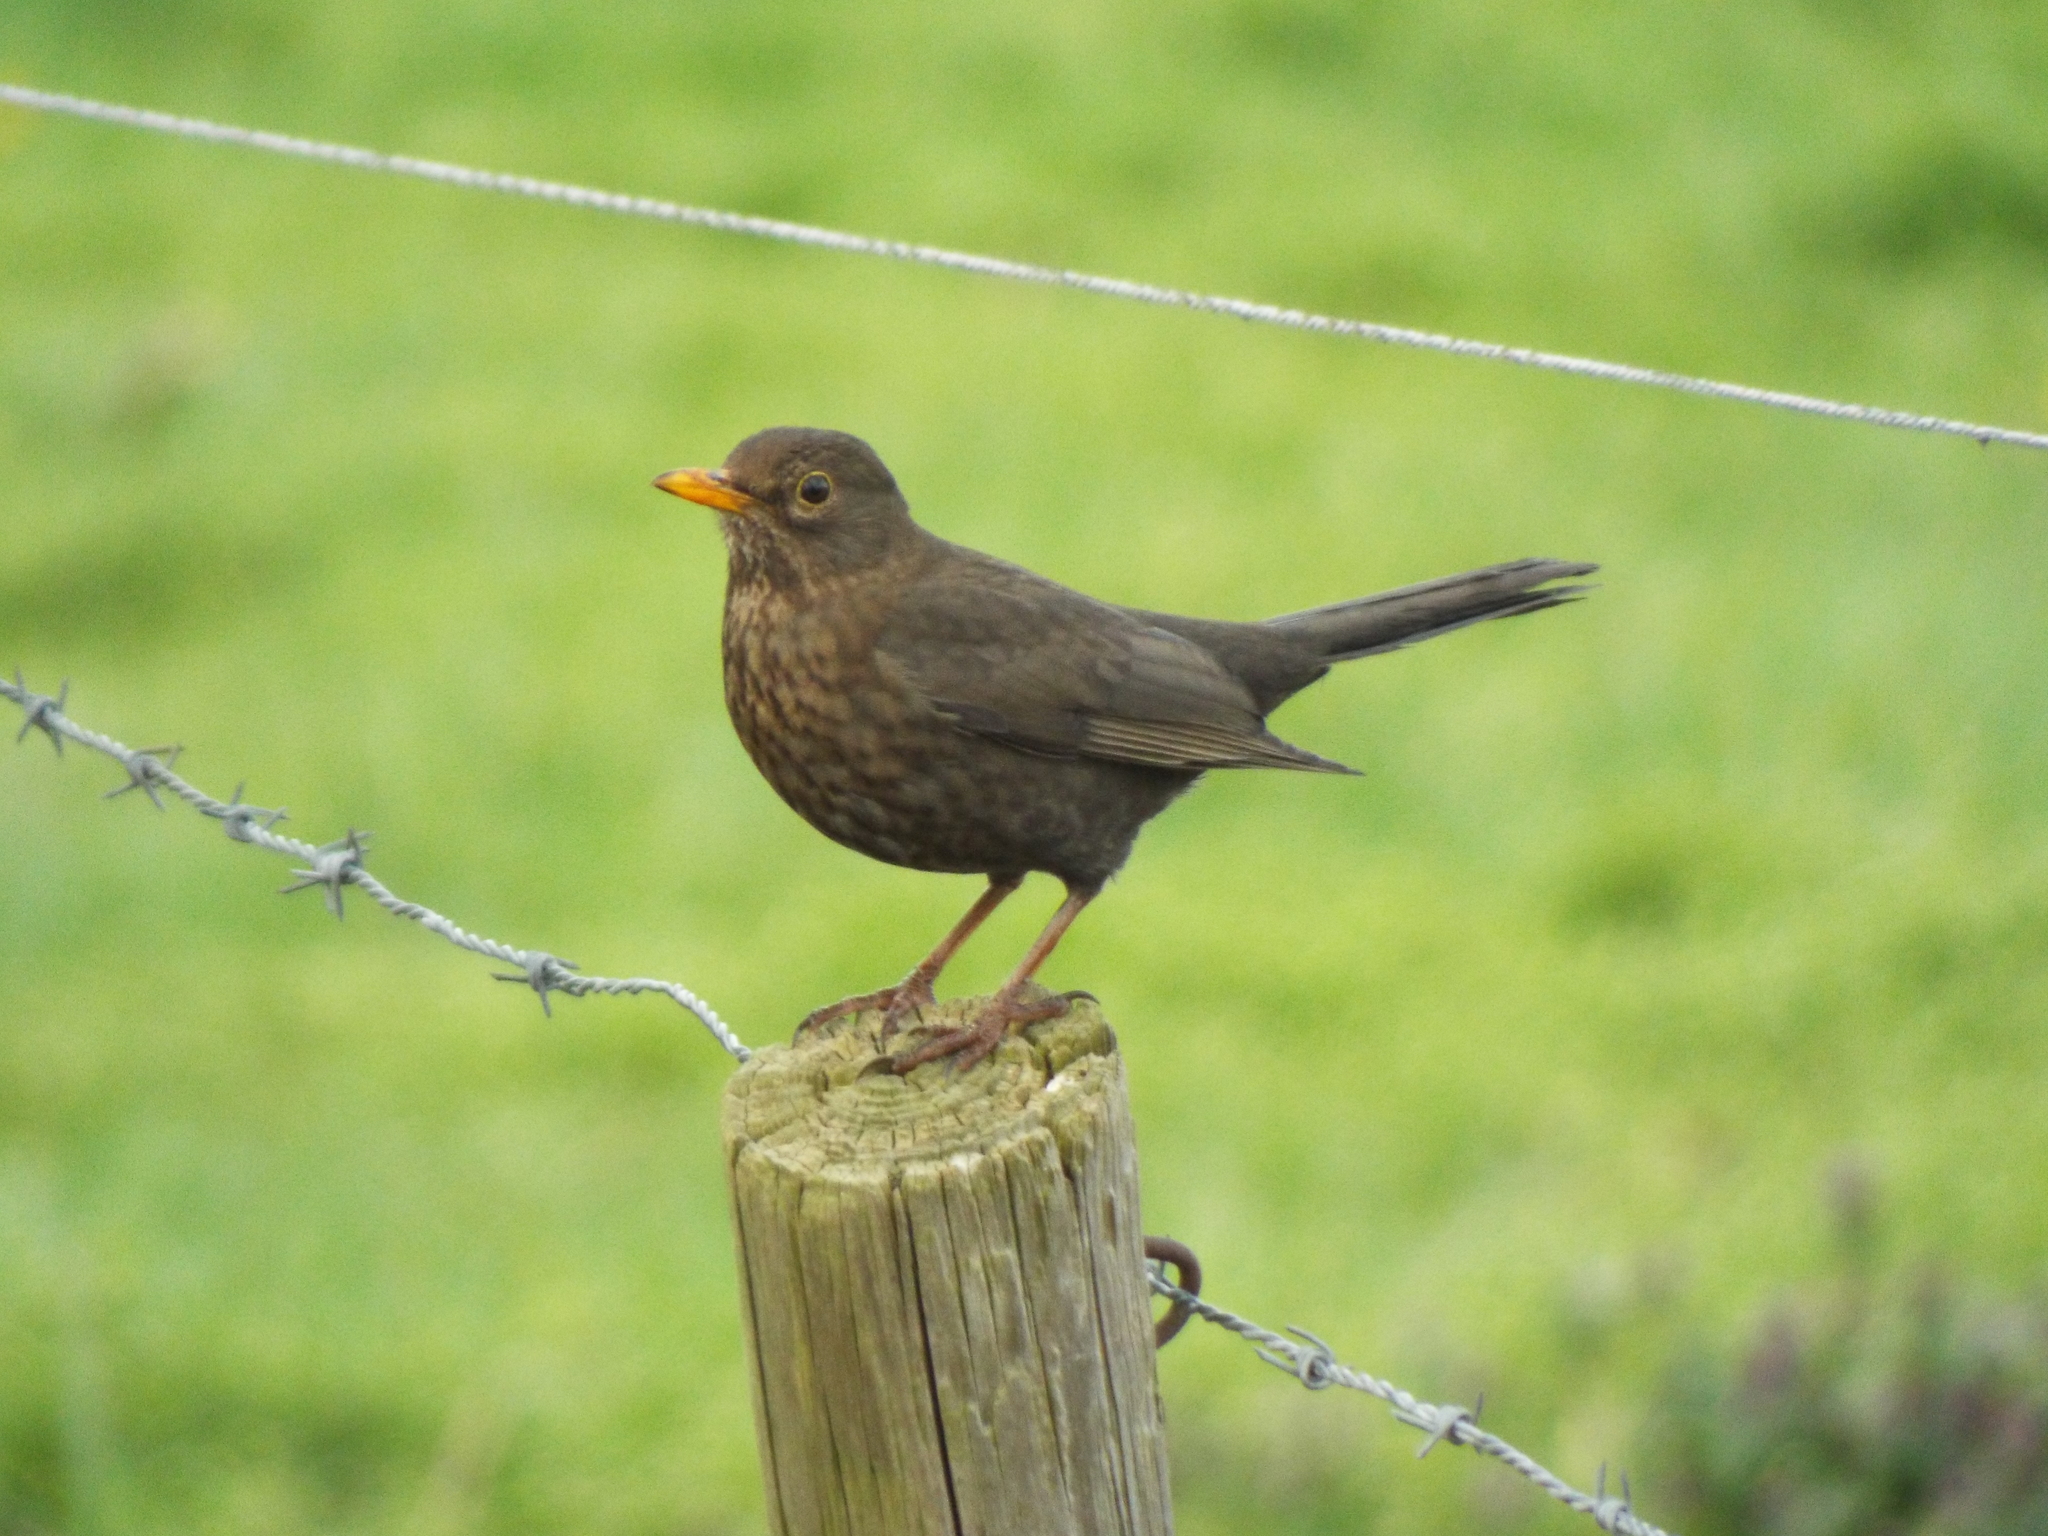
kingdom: Animalia
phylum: Chordata
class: Aves
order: Passeriformes
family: Turdidae
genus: Turdus
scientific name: Turdus merula
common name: Common blackbird
